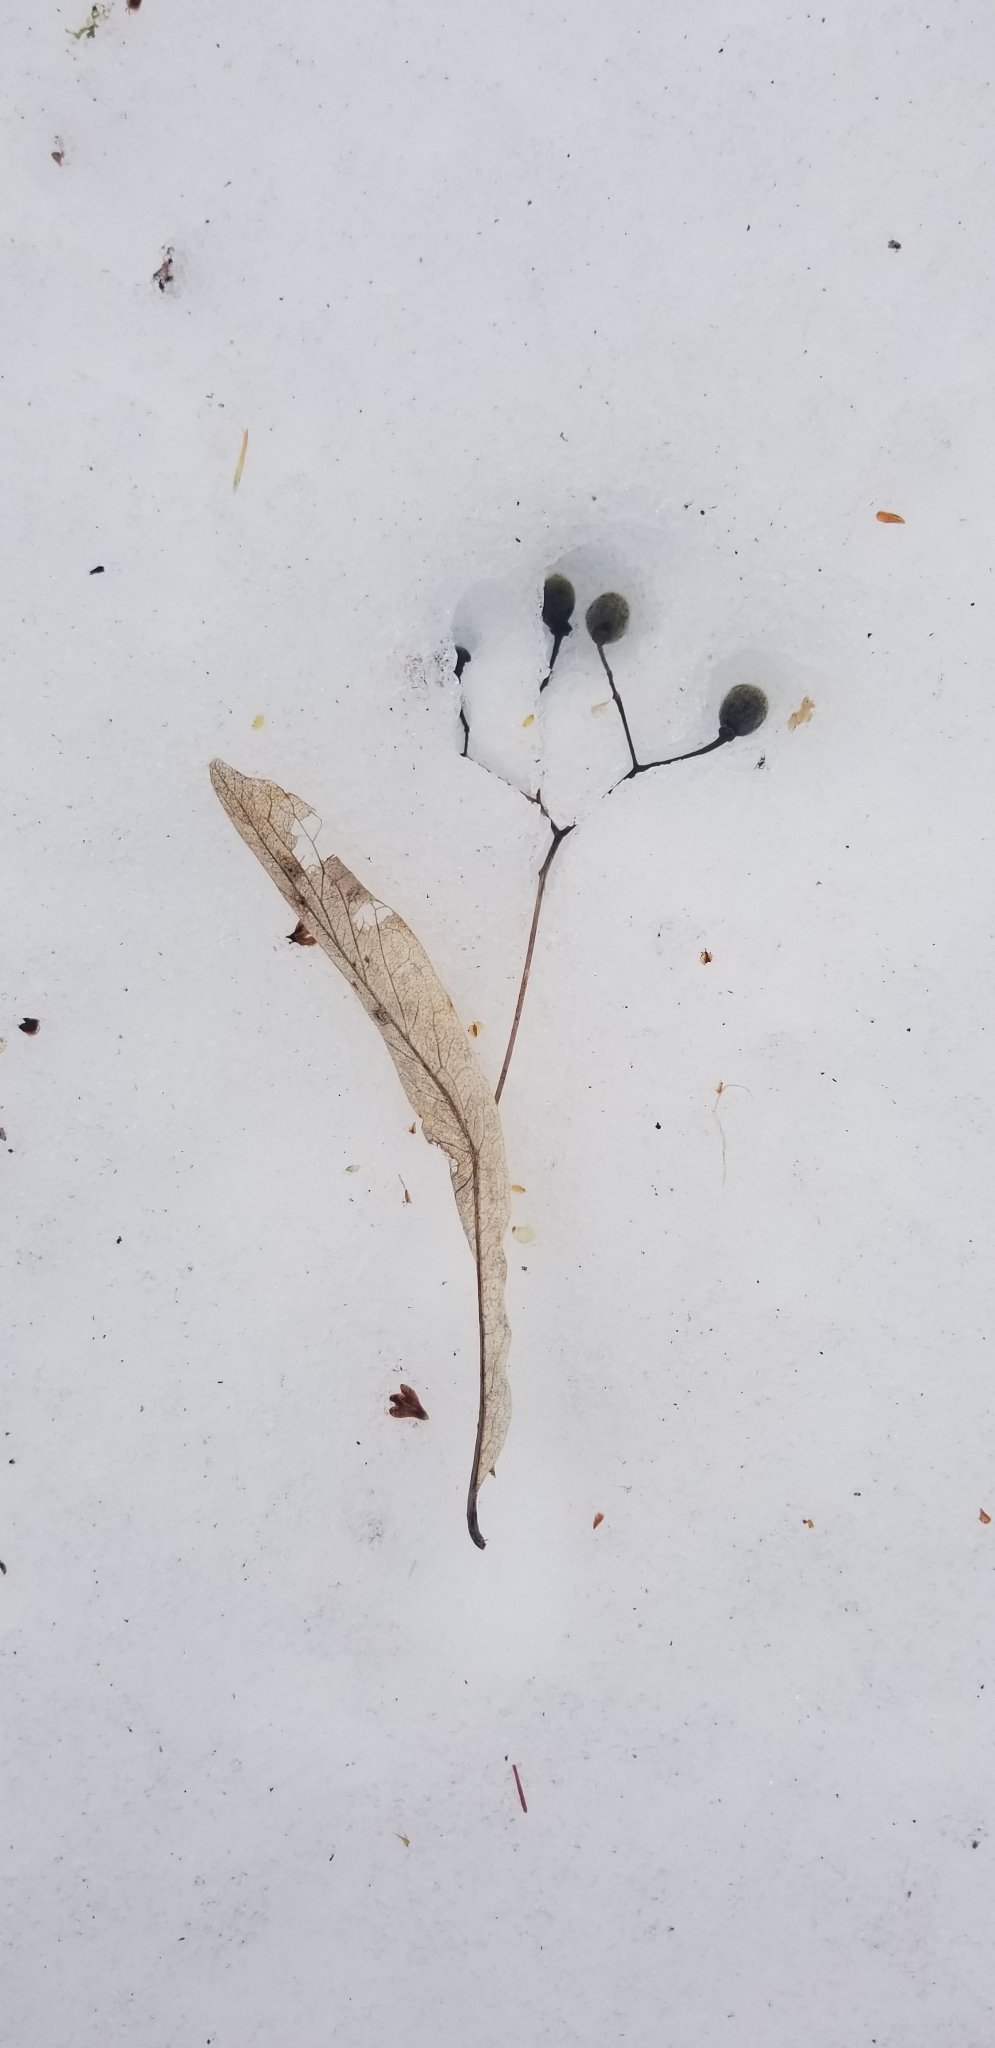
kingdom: Plantae
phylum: Tracheophyta
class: Magnoliopsida
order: Malvales
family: Malvaceae
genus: Tilia
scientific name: Tilia americana
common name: Basswood
